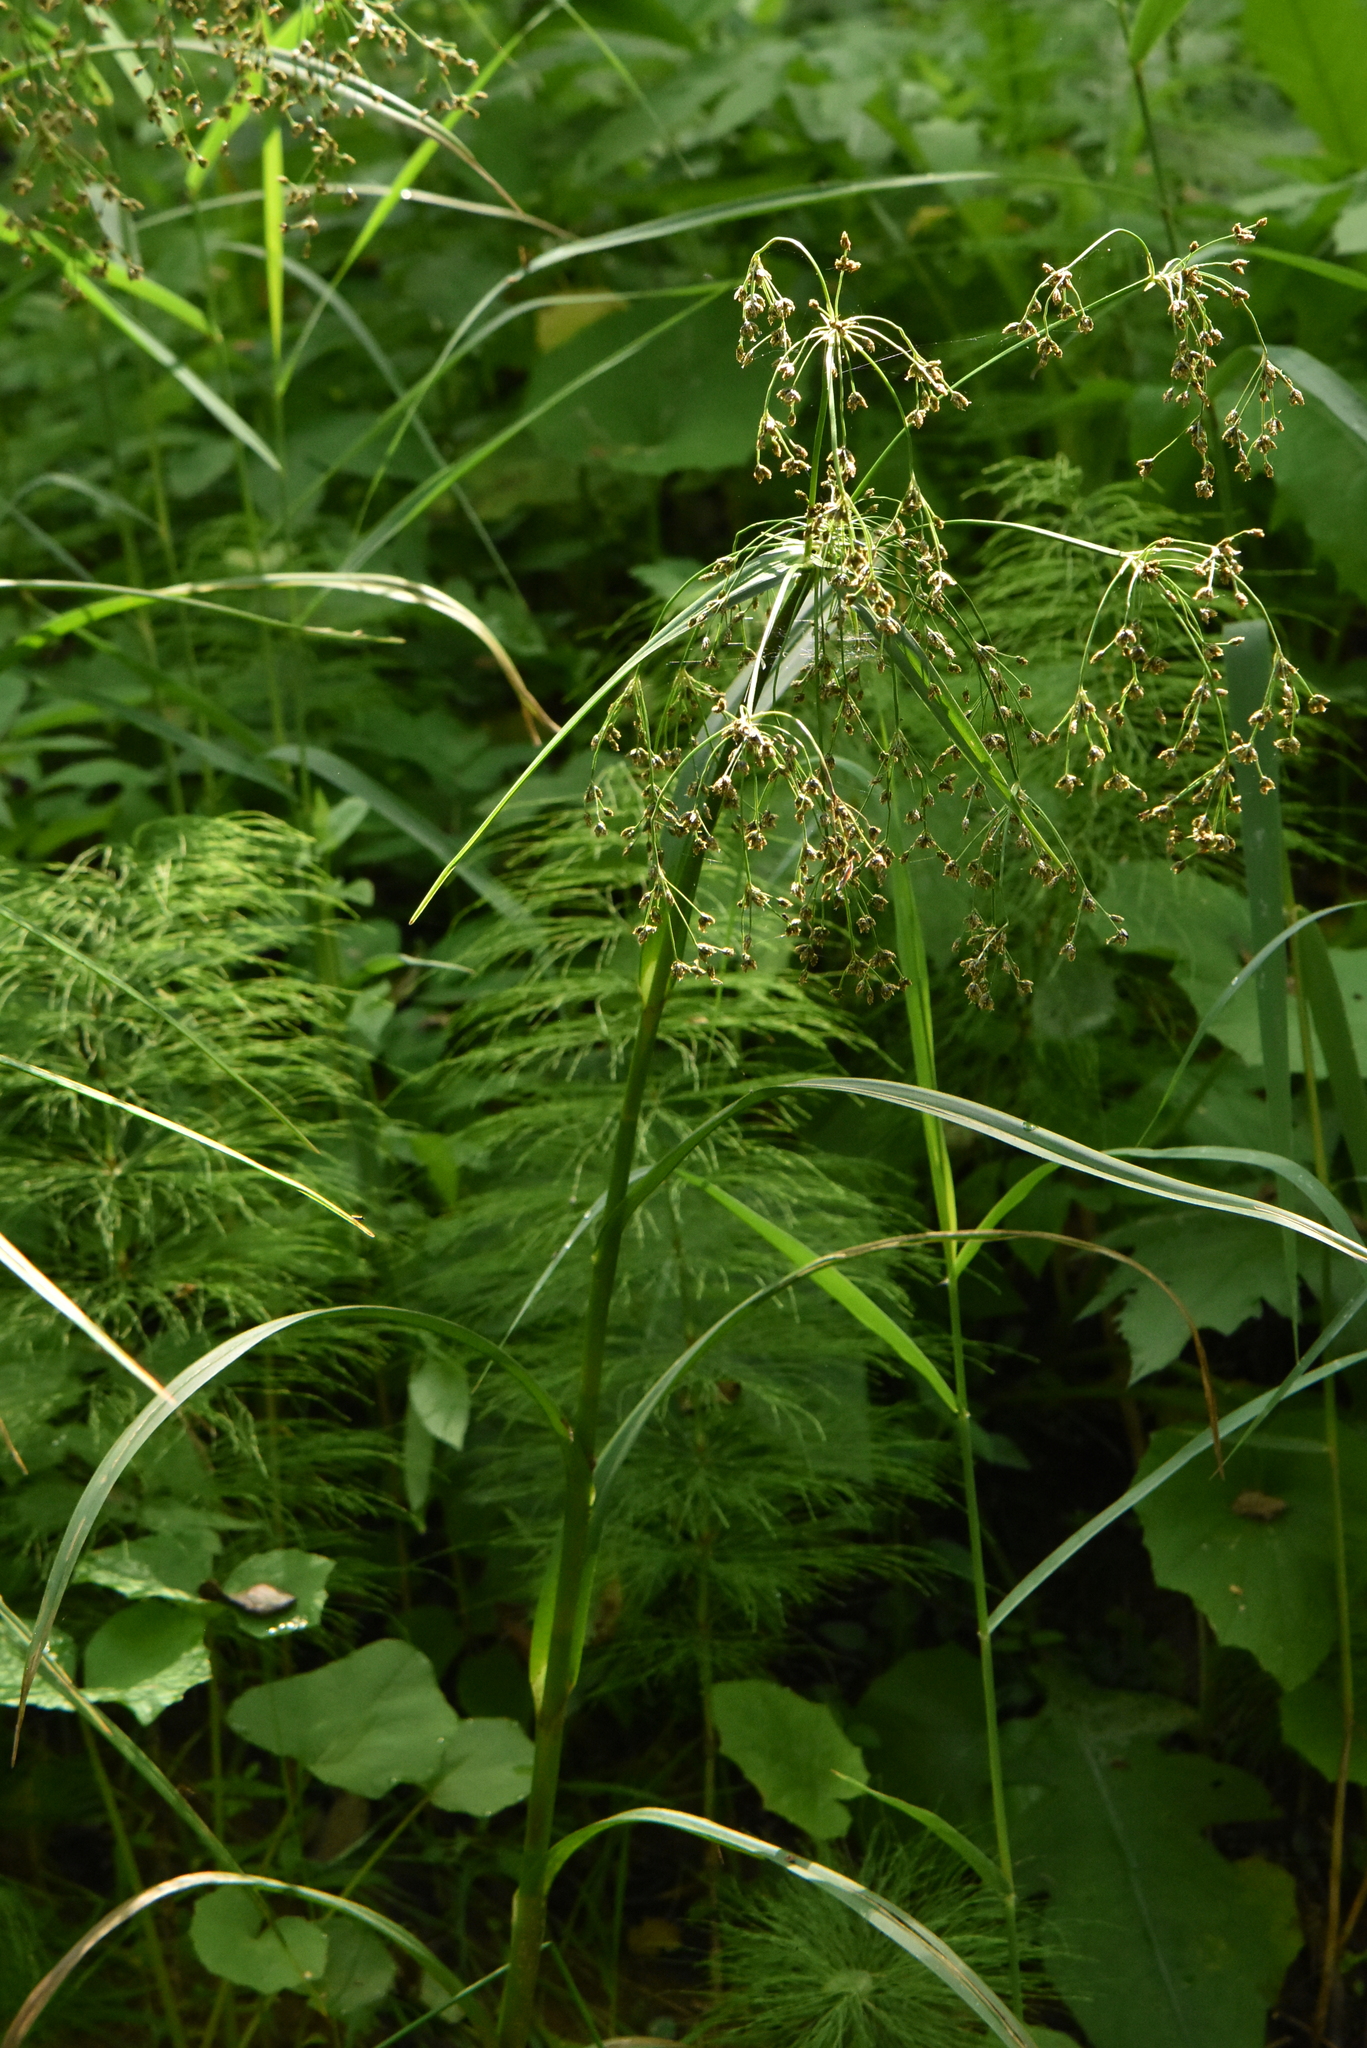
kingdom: Plantae
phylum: Tracheophyta
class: Liliopsida
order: Poales
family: Cyperaceae
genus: Scirpus
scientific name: Scirpus sylvaticus
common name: Wood club-rush
